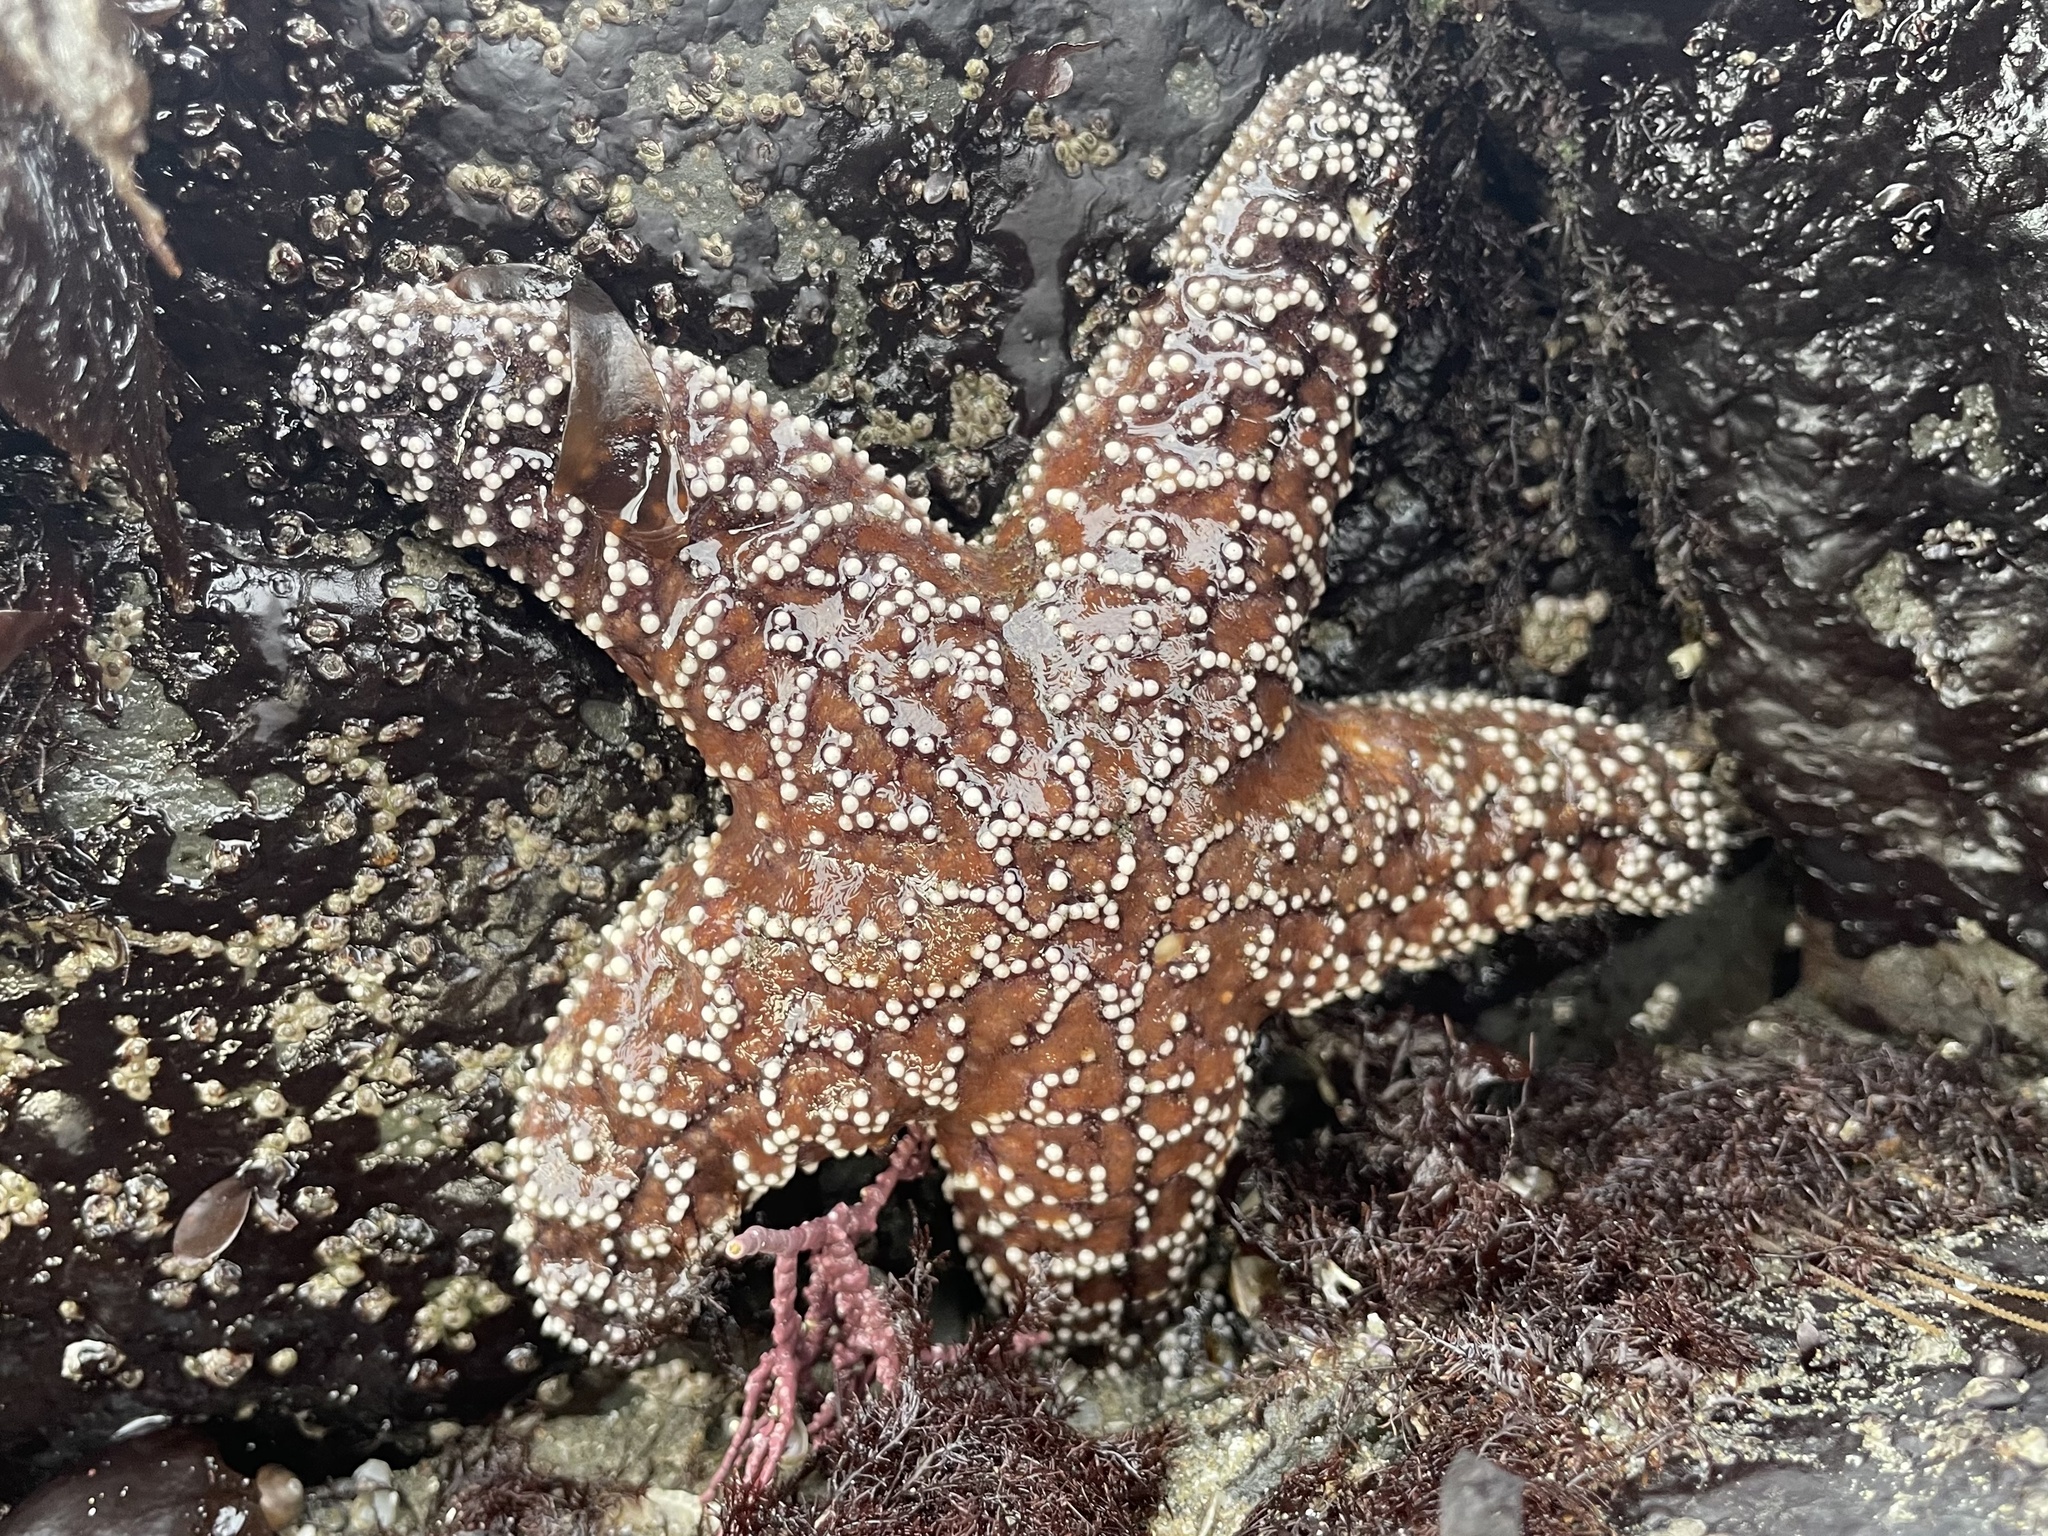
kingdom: Animalia
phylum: Echinodermata
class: Asteroidea
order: Forcipulatida
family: Asteriidae
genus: Pisaster
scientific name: Pisaster ochraceus
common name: Ochre stars
